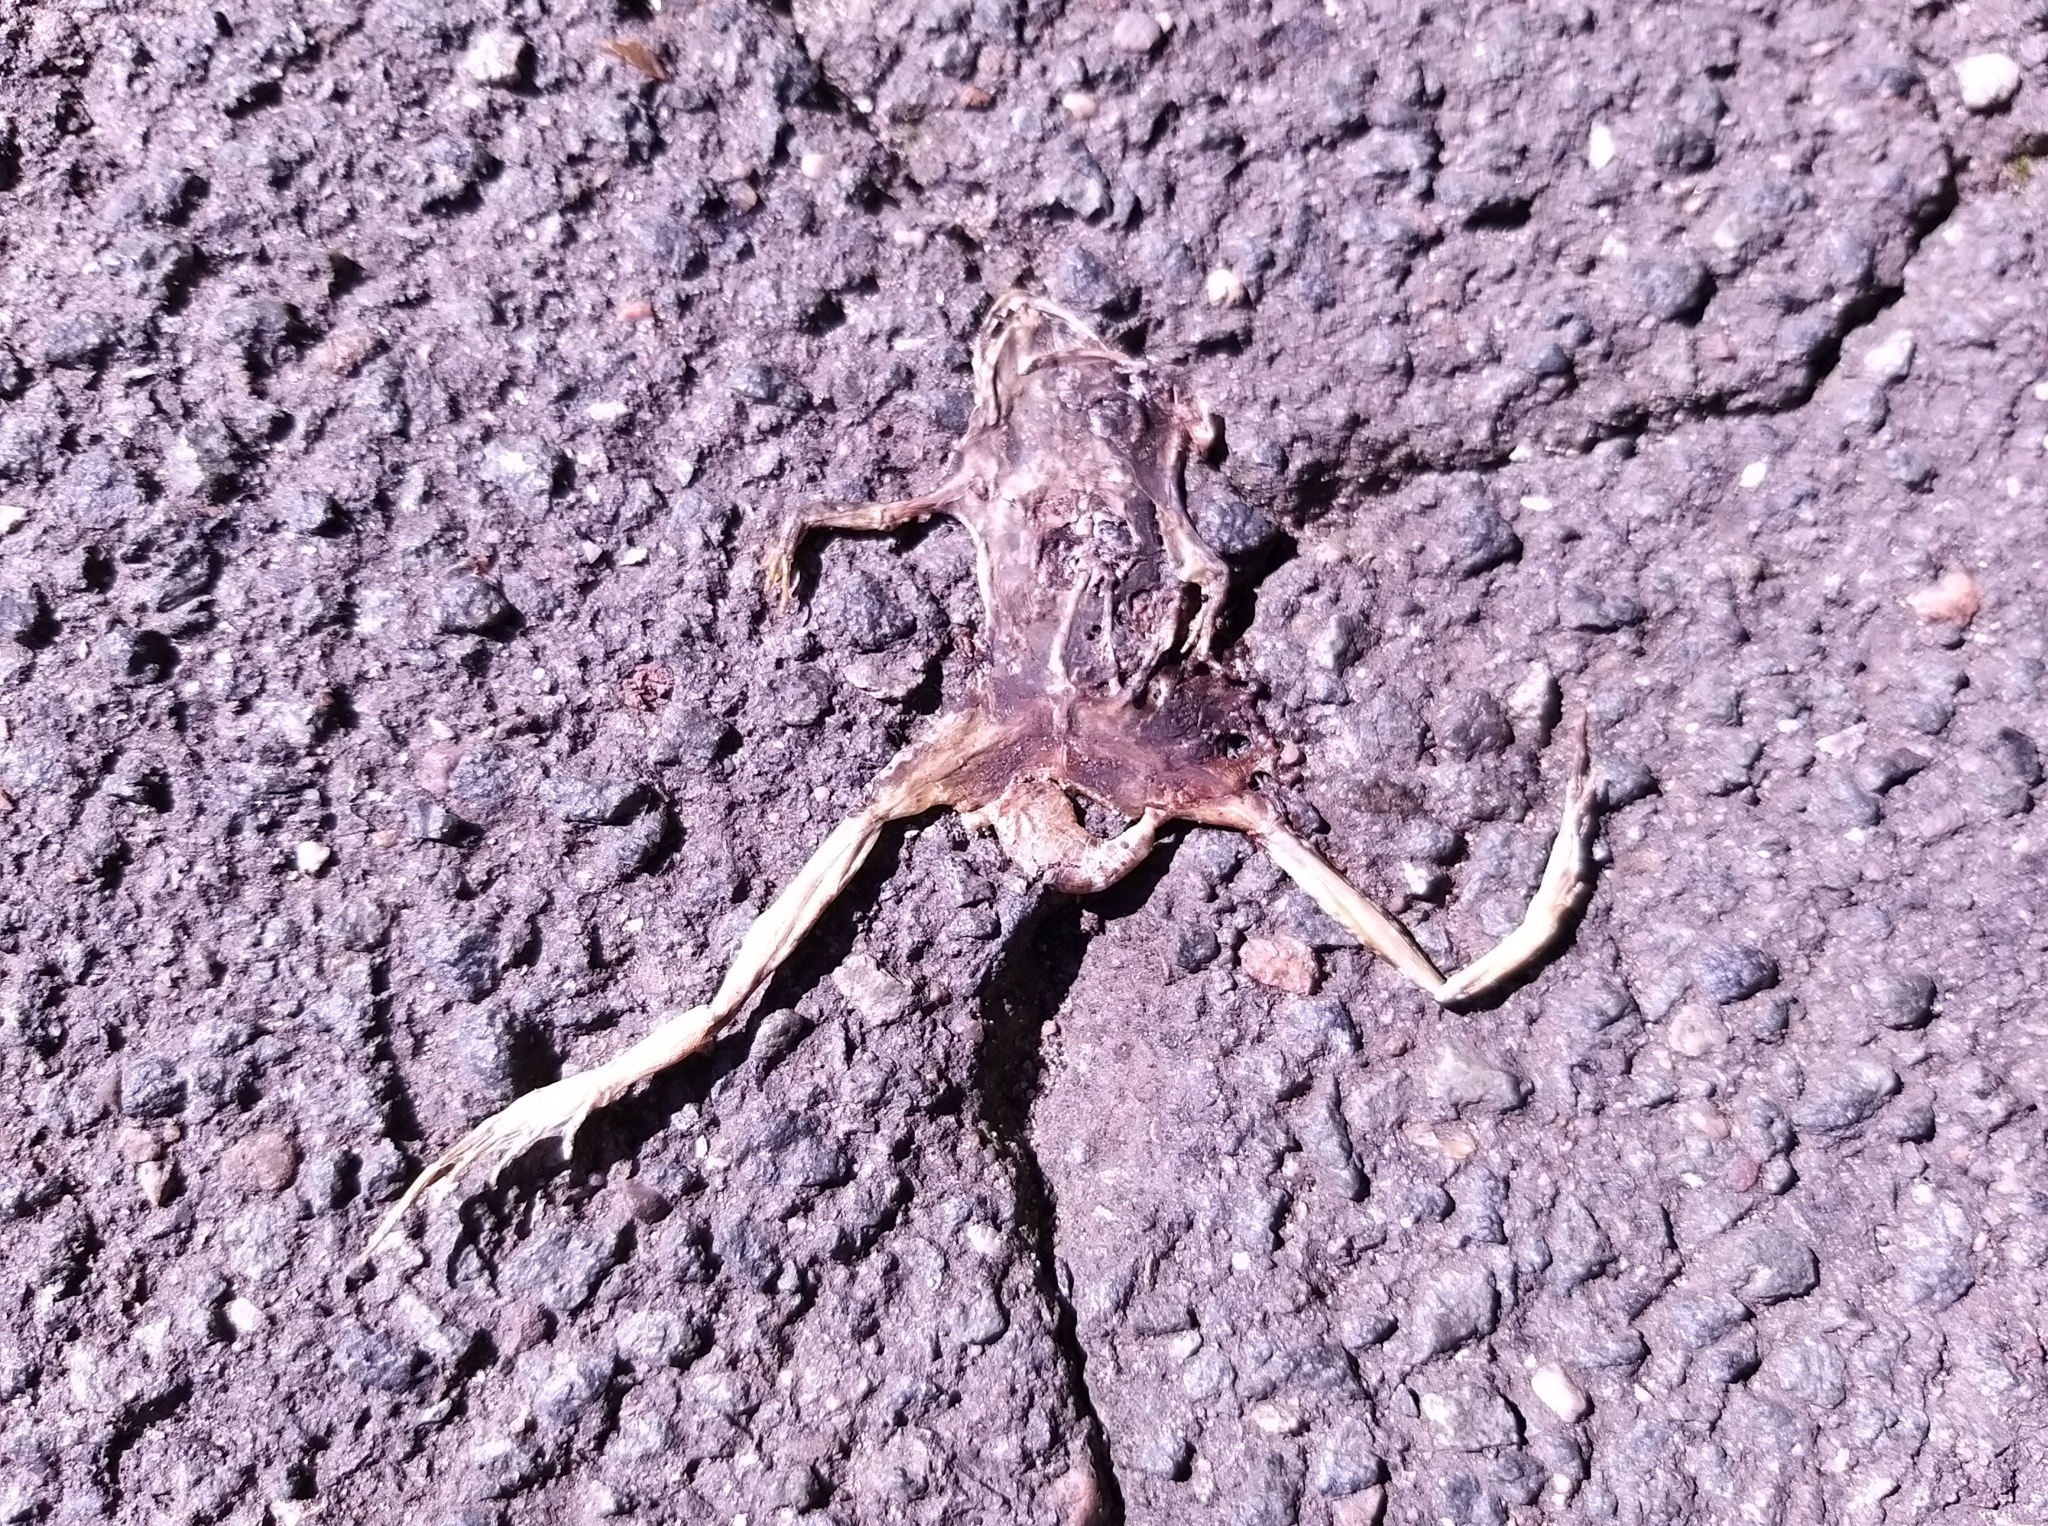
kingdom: Animalia
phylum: Chordata
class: Amphibia
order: Anura
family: Ranidae
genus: Rana
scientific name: Rana temporaria
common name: Common frog
